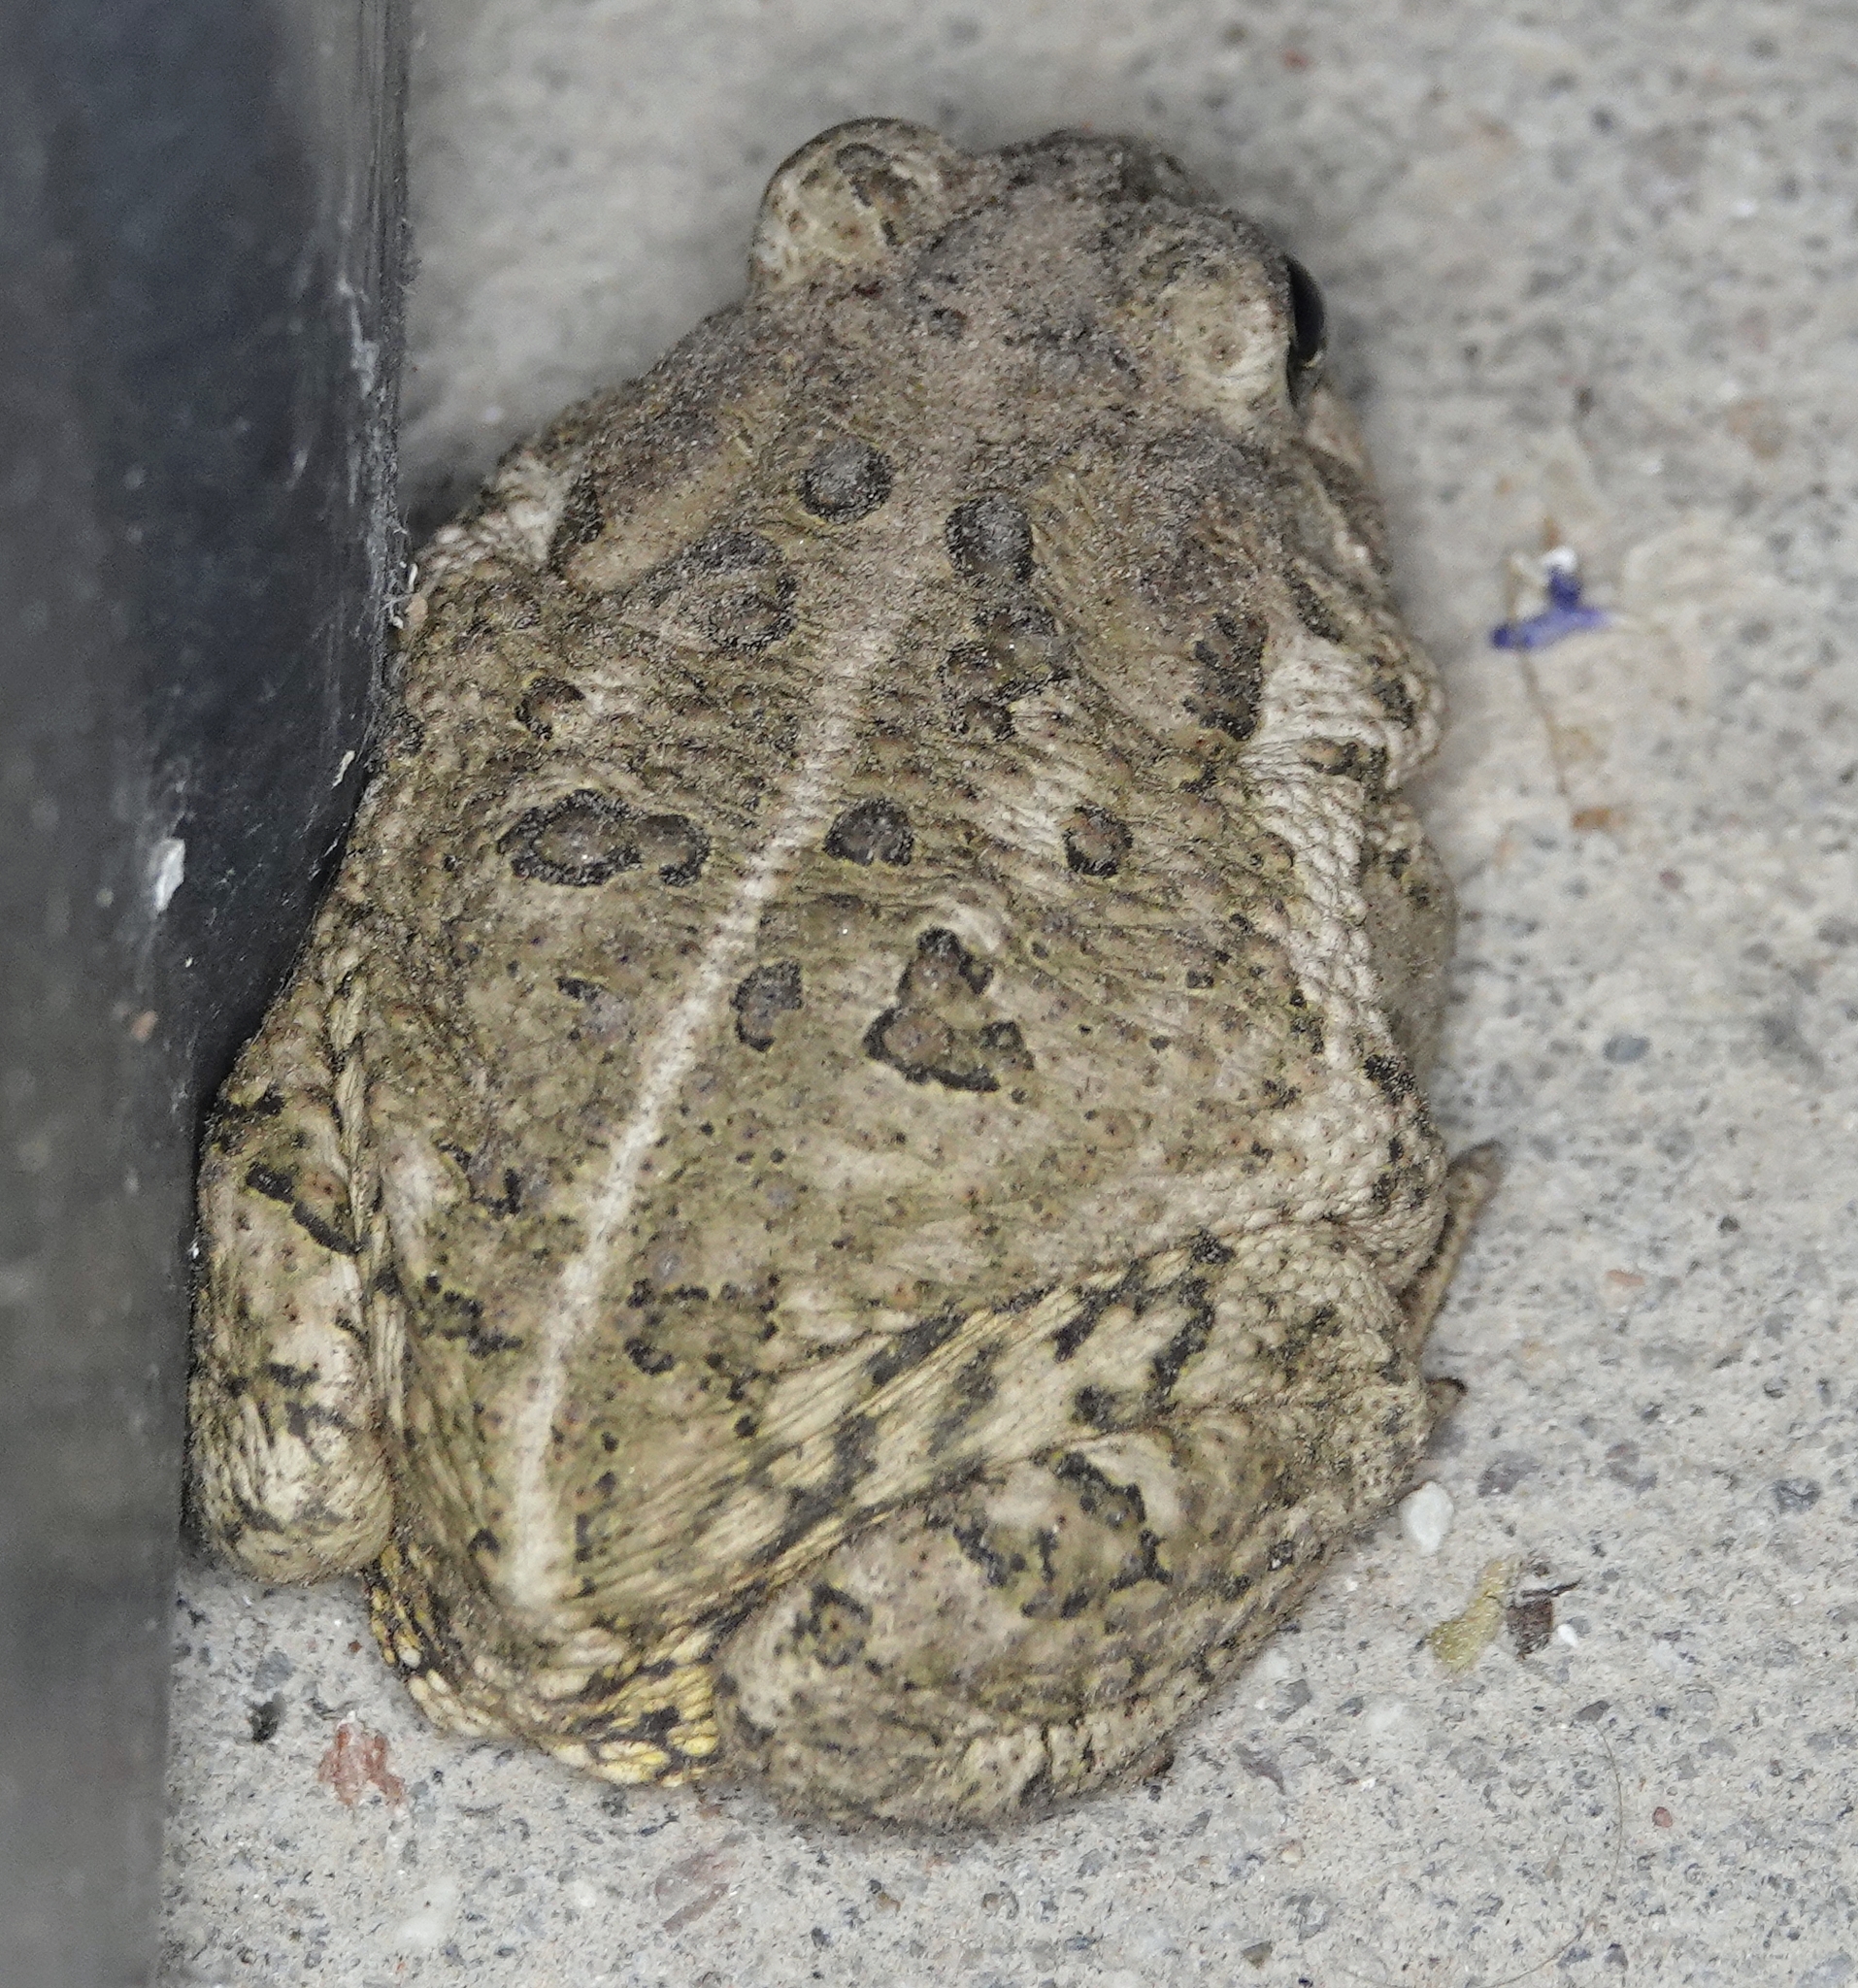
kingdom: Animalia
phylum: Chordata
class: Amphibia
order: Anura
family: Bufonidae
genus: Anaxyrus
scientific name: Anaxyrus woodhousii
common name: Woodhouse's toad
